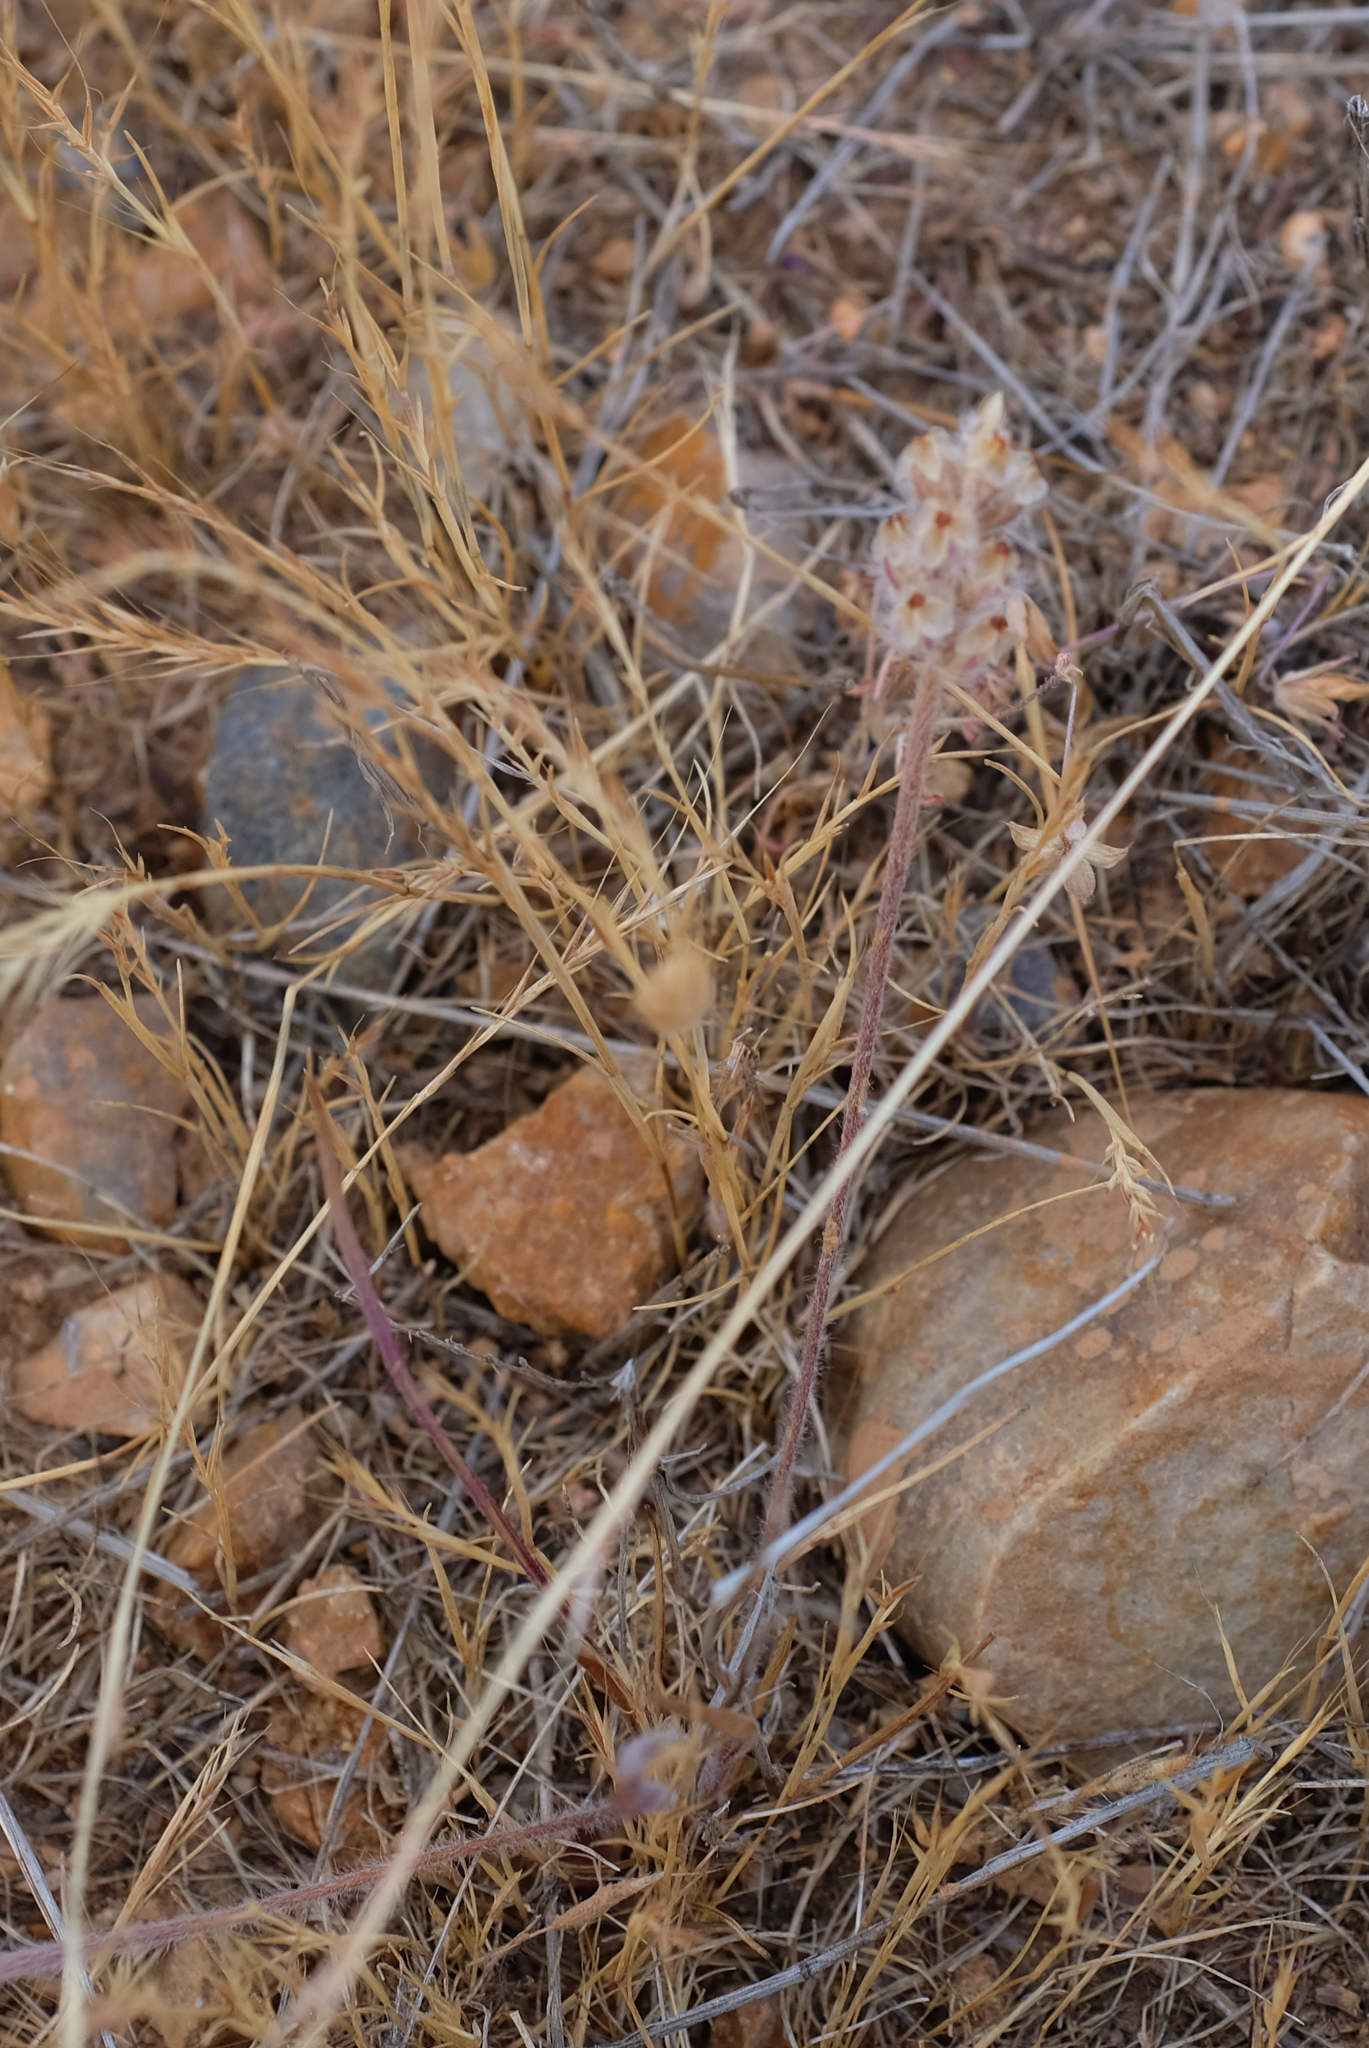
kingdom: Plantae
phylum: Tracheophyta
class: Magnoliopsida
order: Lamiales
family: Plantaginaceae
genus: Plantago
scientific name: Plantago erecta
